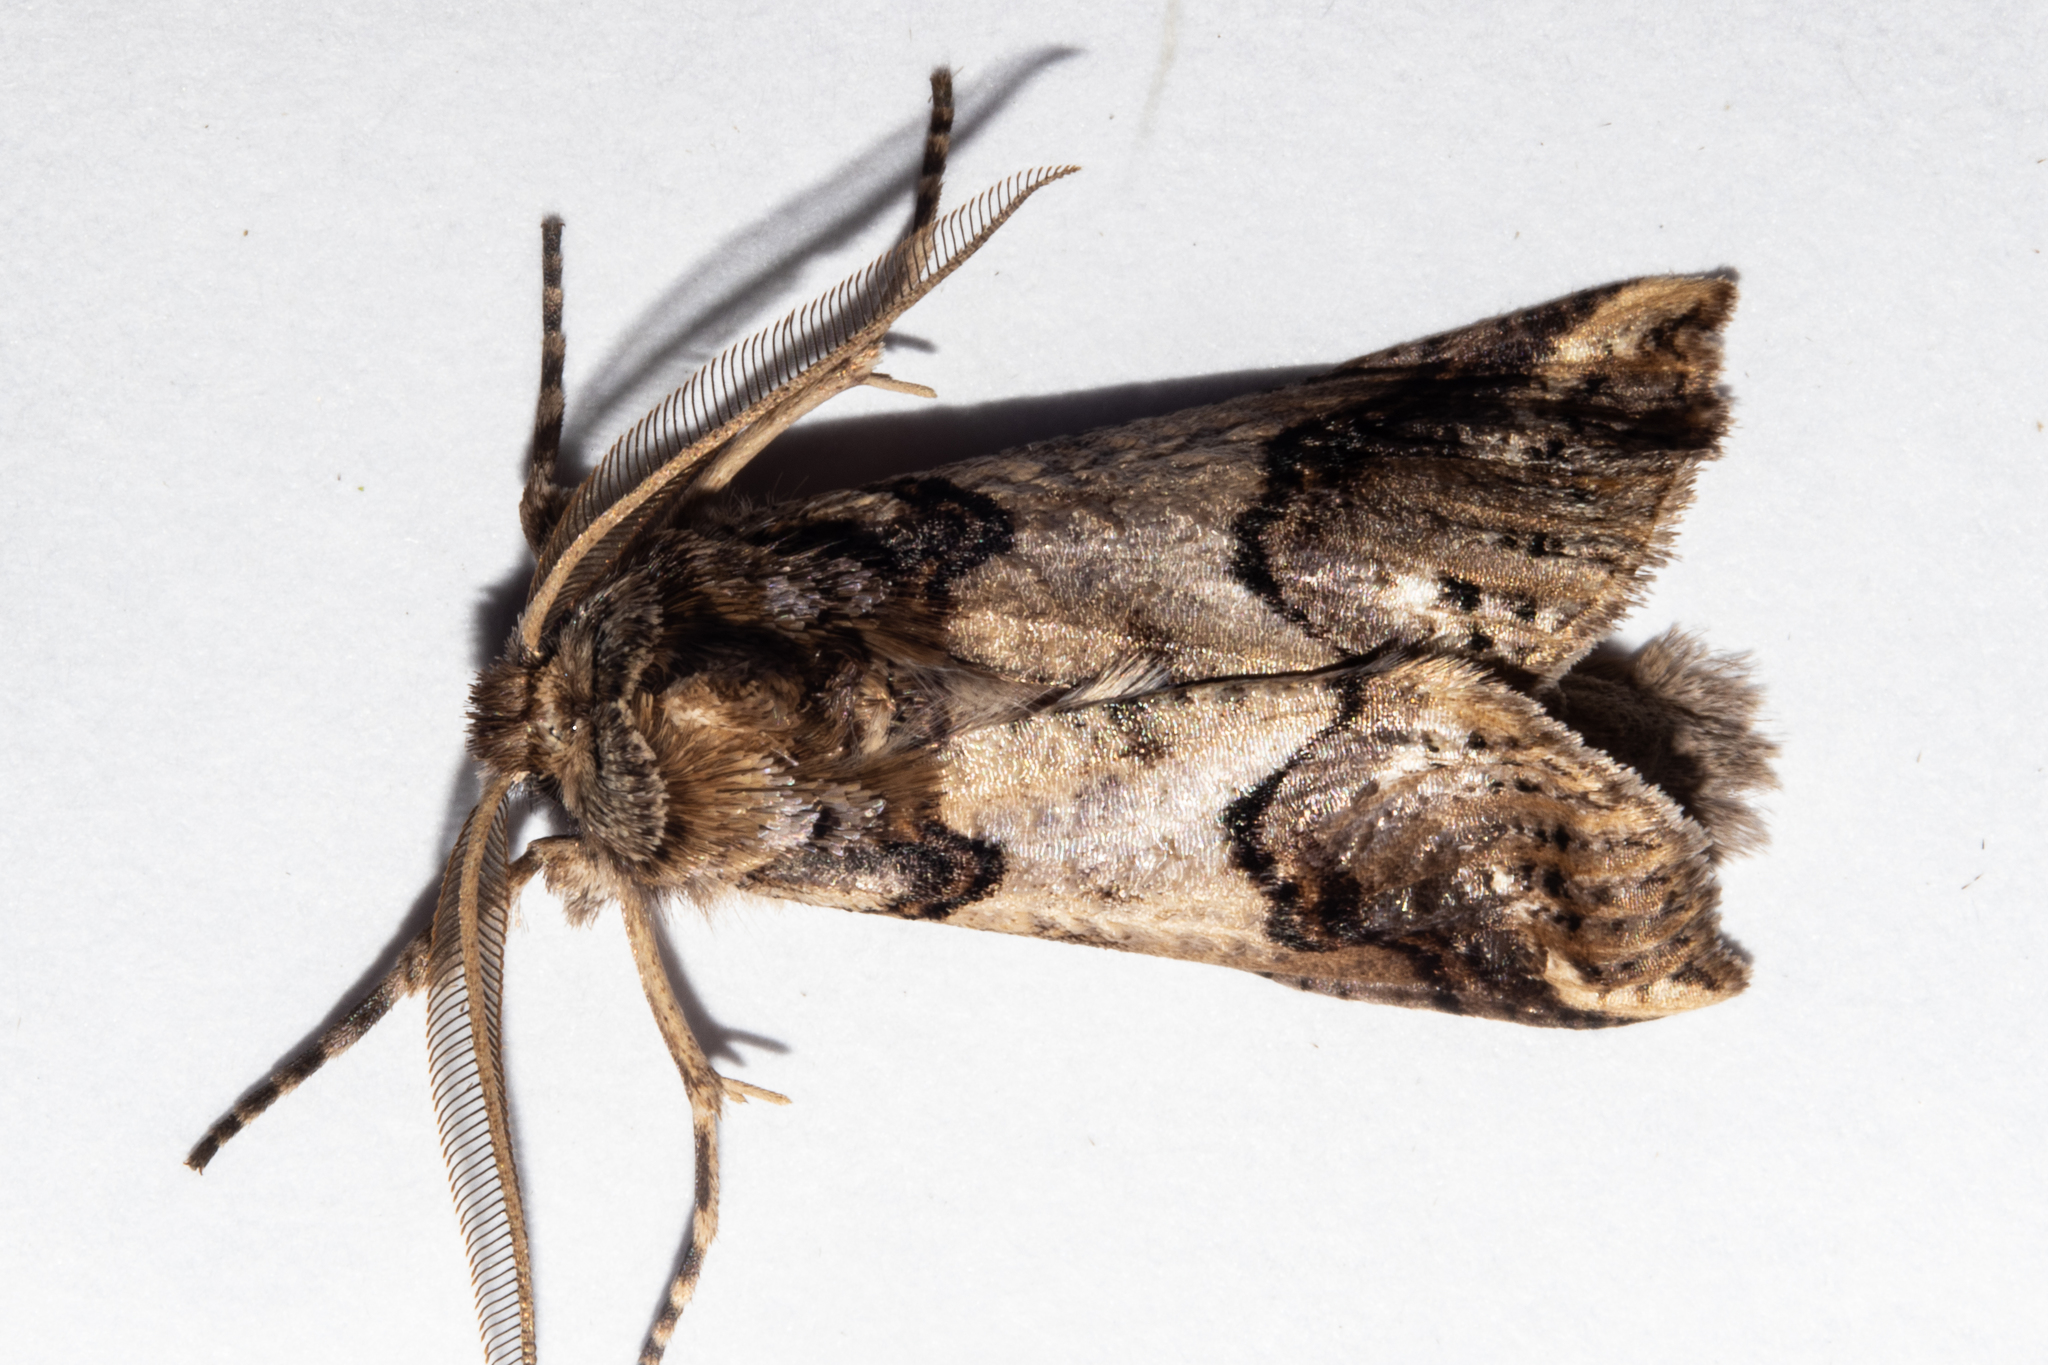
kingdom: Animalia
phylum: Arthropoda
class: Insecta
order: Lepidoptera
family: Geometridae
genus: Declana
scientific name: Declana
